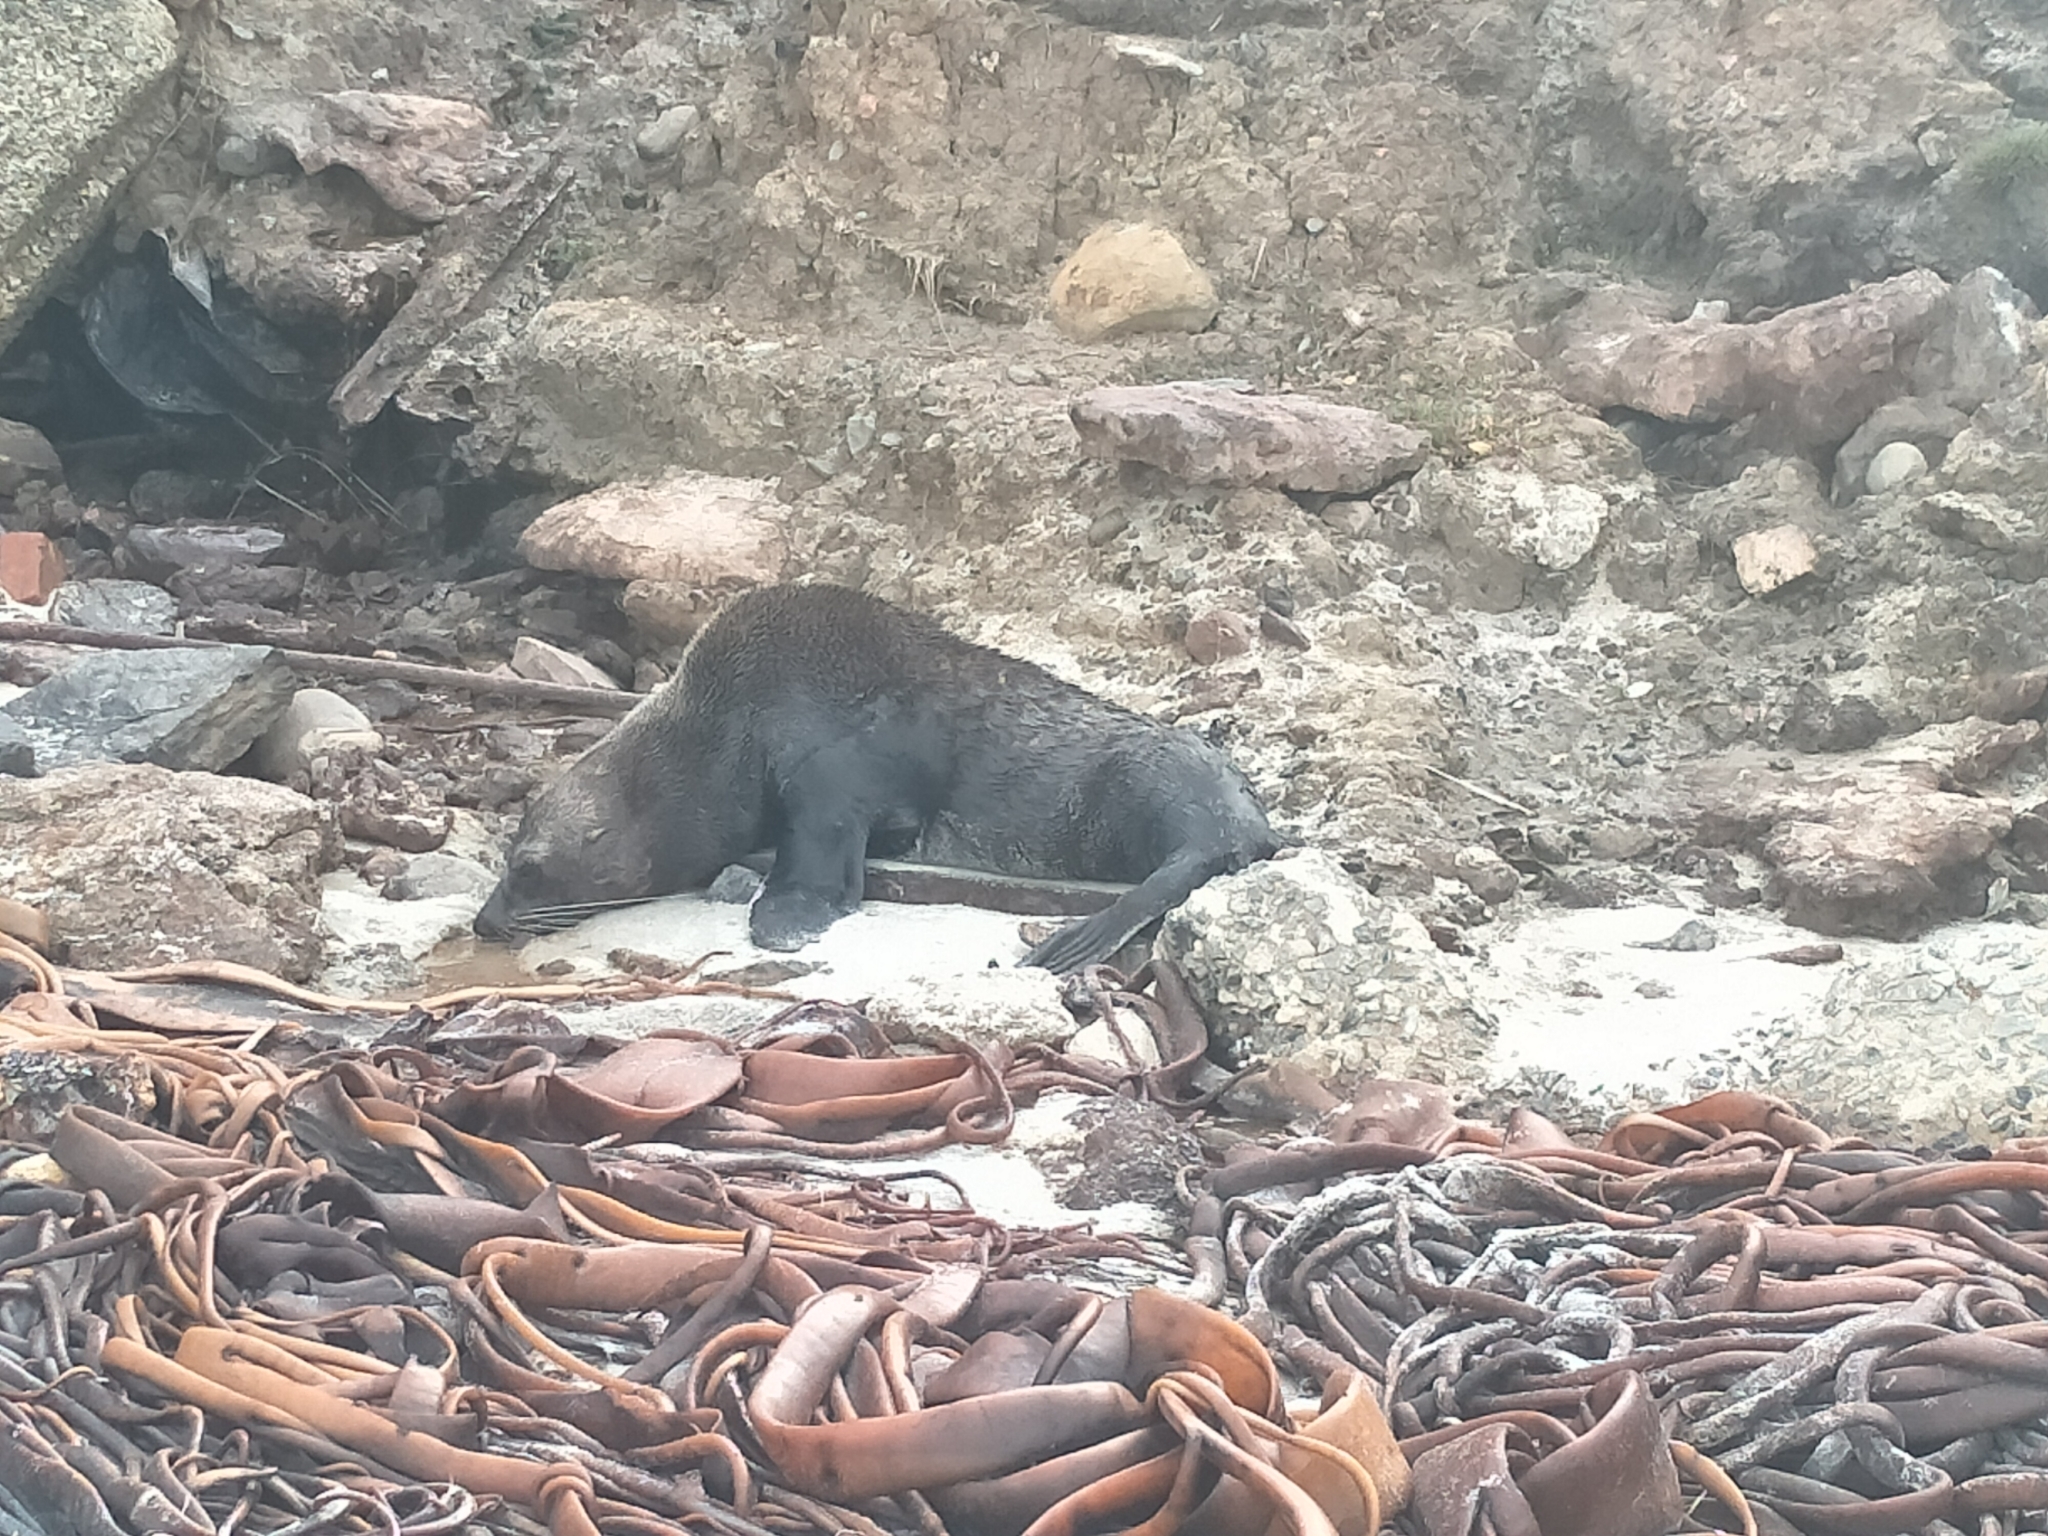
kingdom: Animalia
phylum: Chordata
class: Mammalia
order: Carnivora
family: Otariidae
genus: Arctocephalus
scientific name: Arctocephalus forsteri
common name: New zealand fur seal
